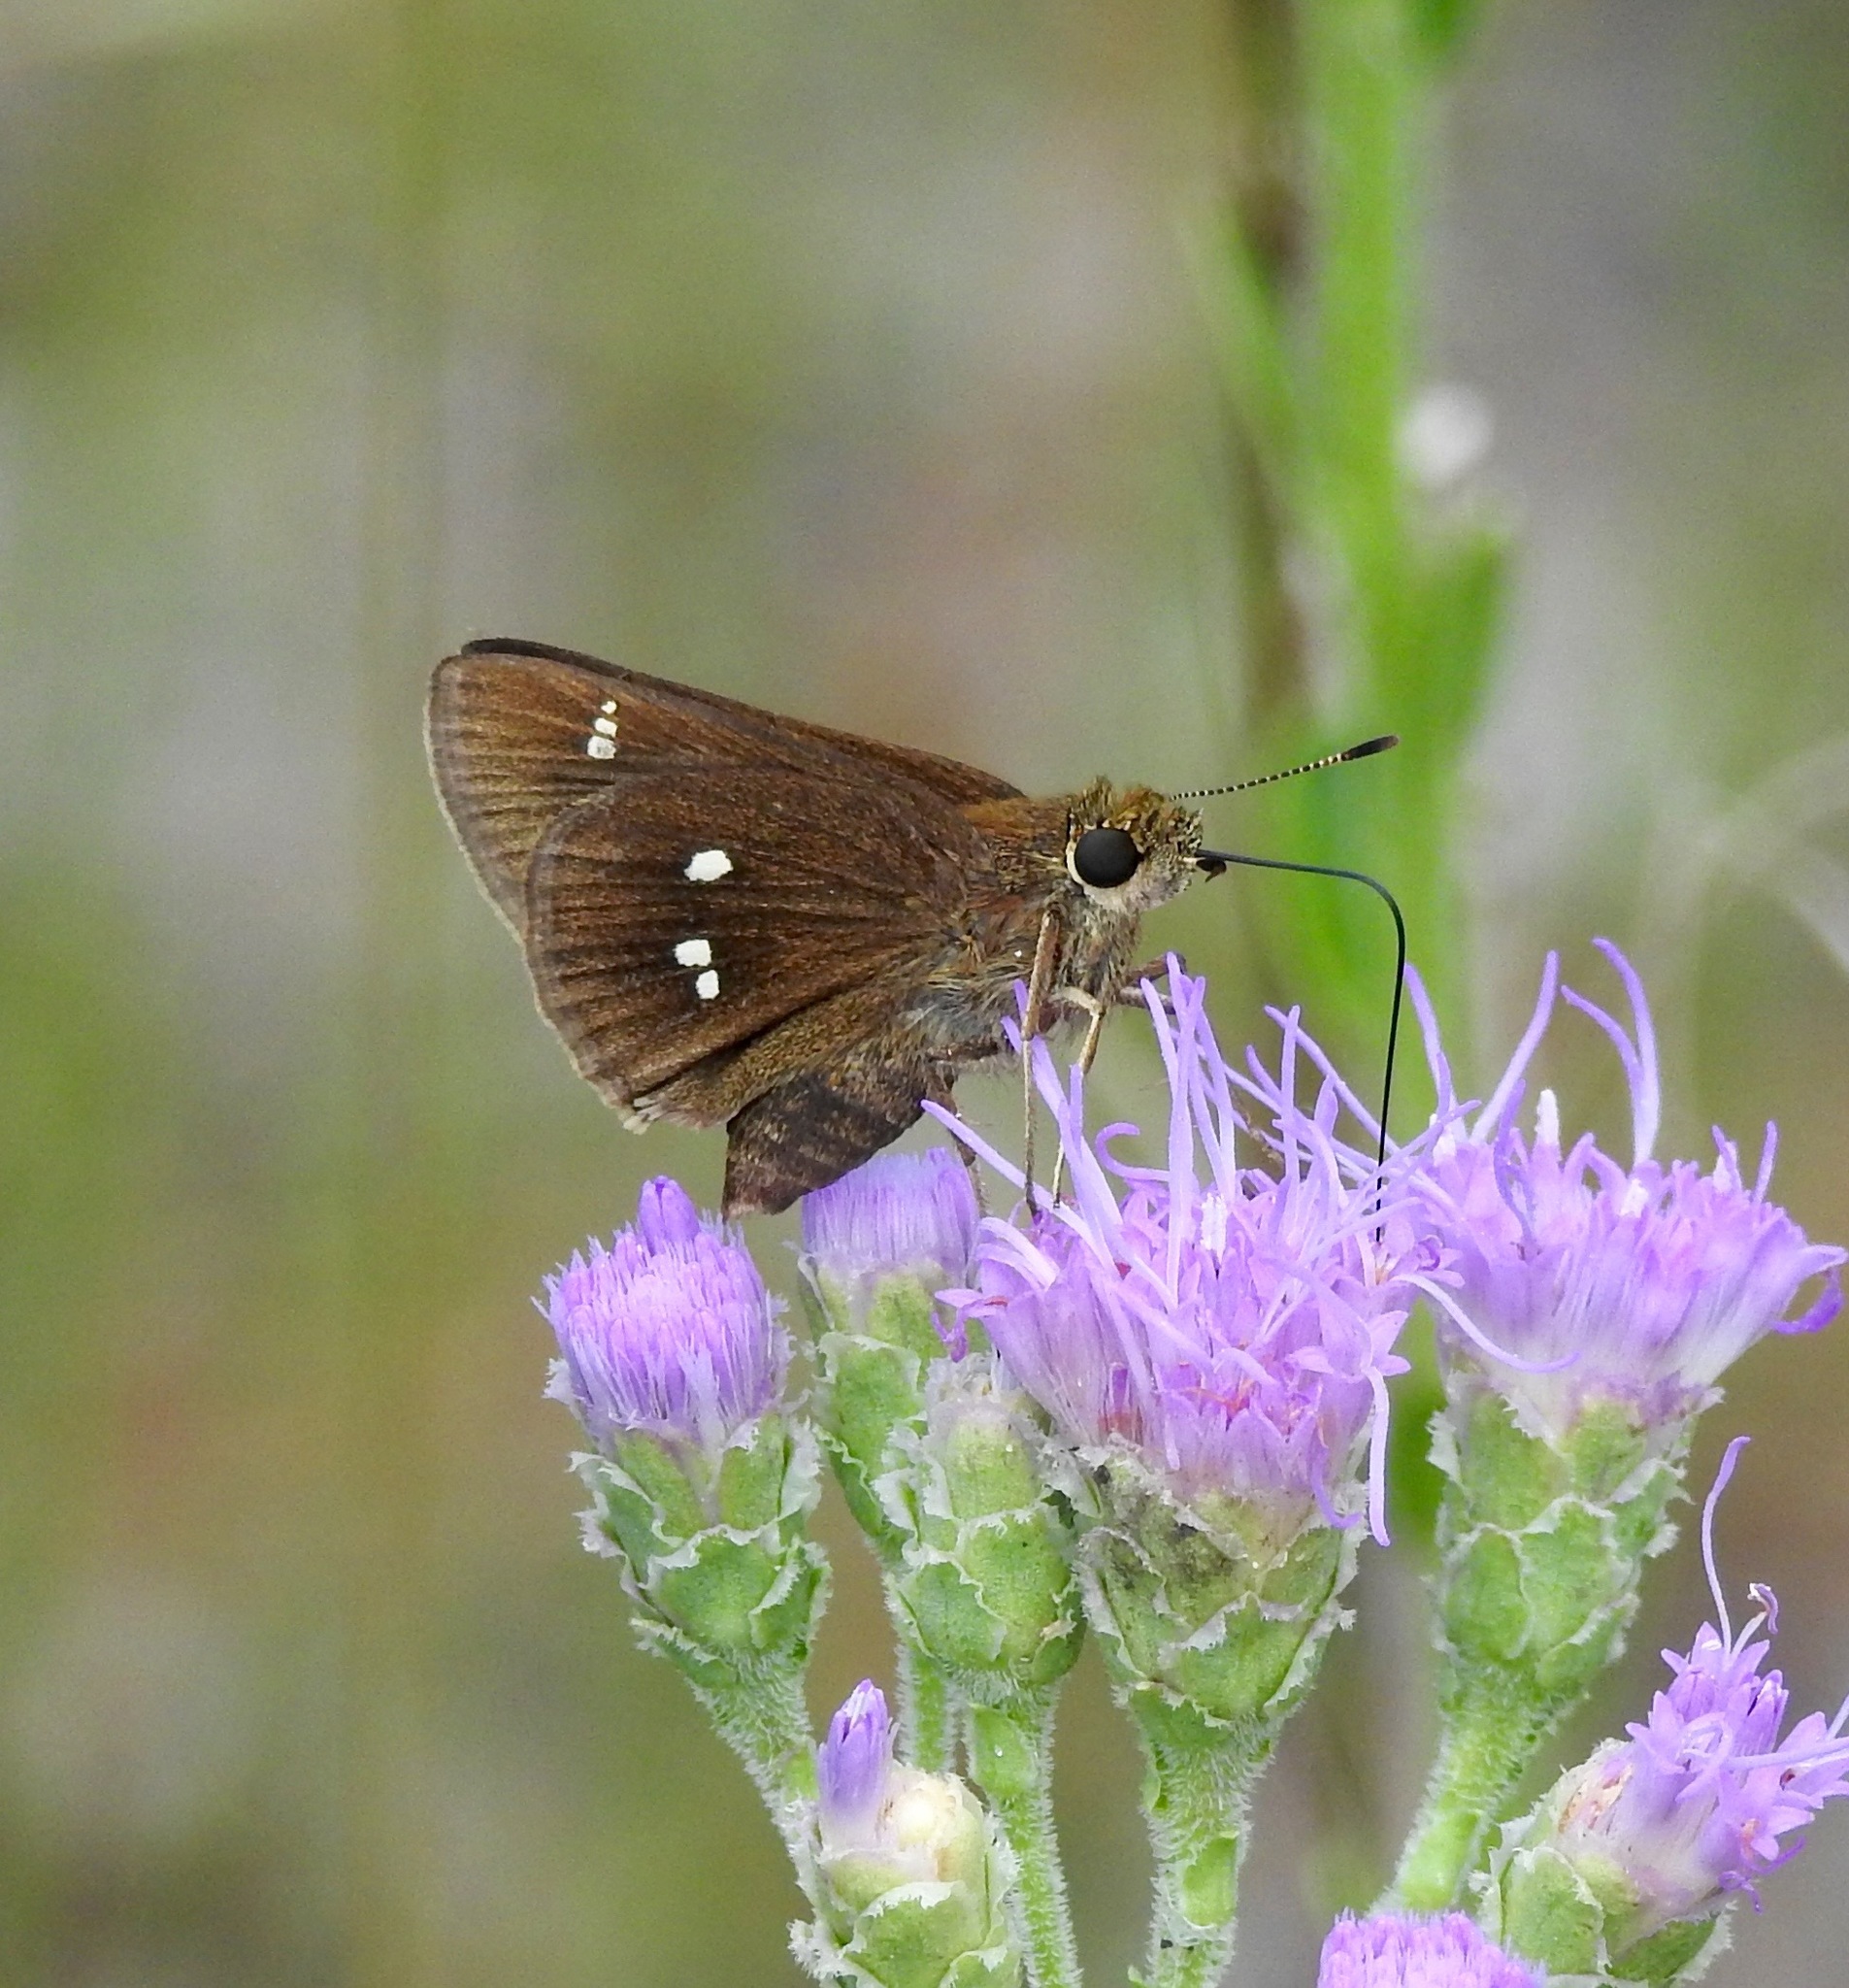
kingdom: Animalia
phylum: Arthropoda
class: Insecta
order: Lepidoptera
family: Hesperiidae
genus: Oligoria
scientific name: Oligoria maculata
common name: Twin-spot skipper
